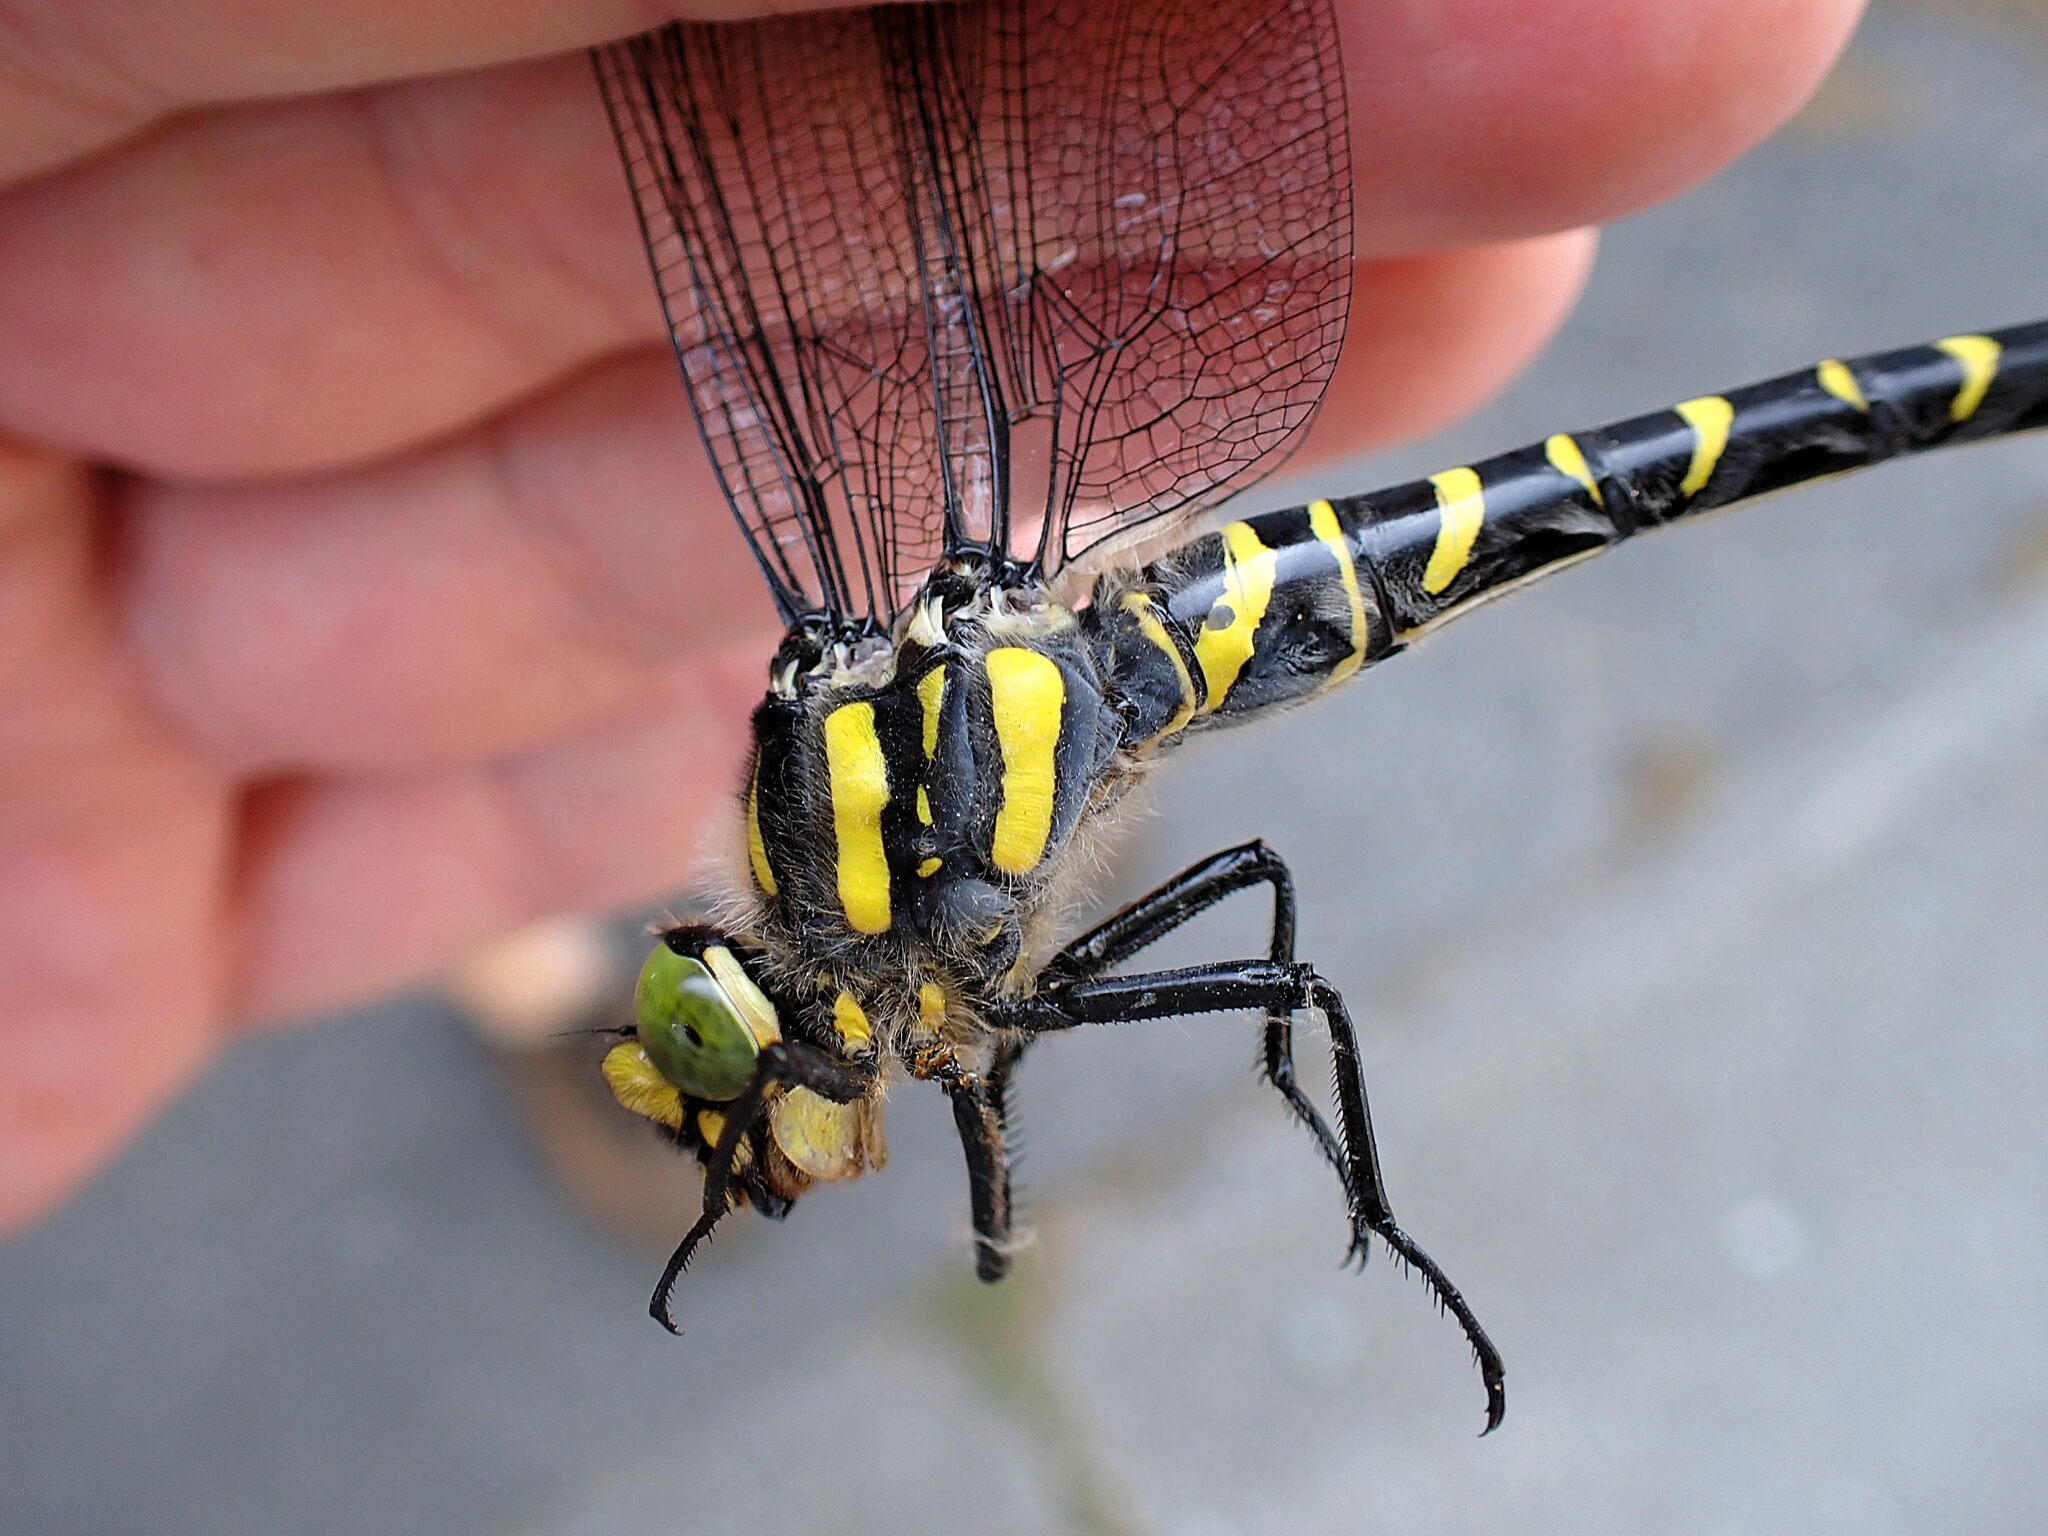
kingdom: Animalia
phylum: Arthropoda
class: Insecta
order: Odonata
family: Cordulegastridae
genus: Cordulegaster
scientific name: Cordulegaster boltonii
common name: Golden-ringed dragonfly
